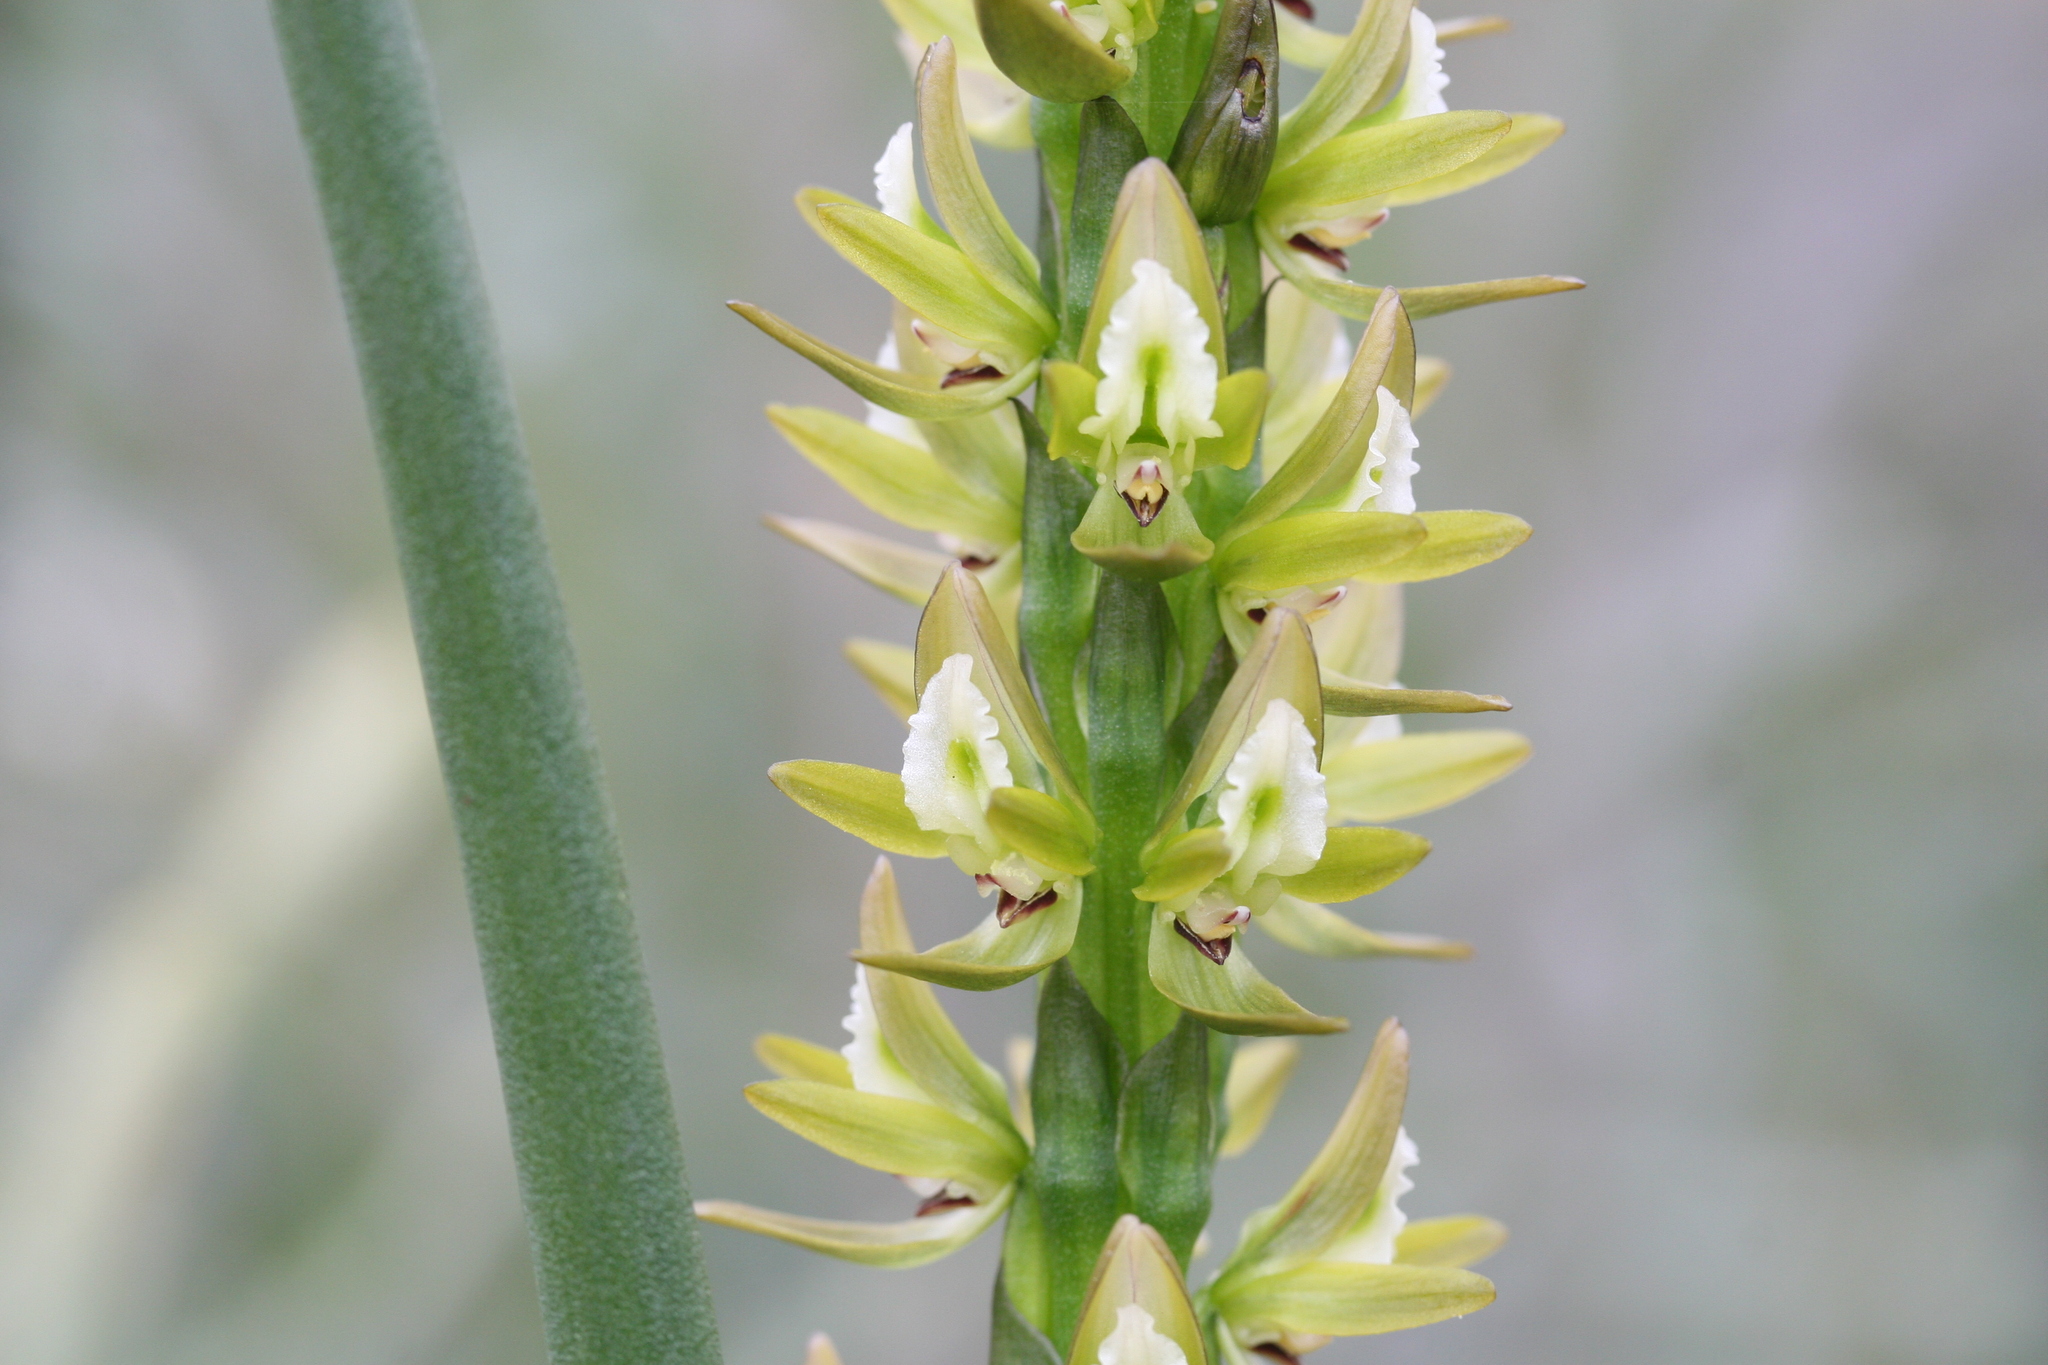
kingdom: Plantae
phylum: Tracheophyta
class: Liliopsida
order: Asparagales
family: Orchidaceae
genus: Prasophyllum
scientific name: Prasophyllum elatum
